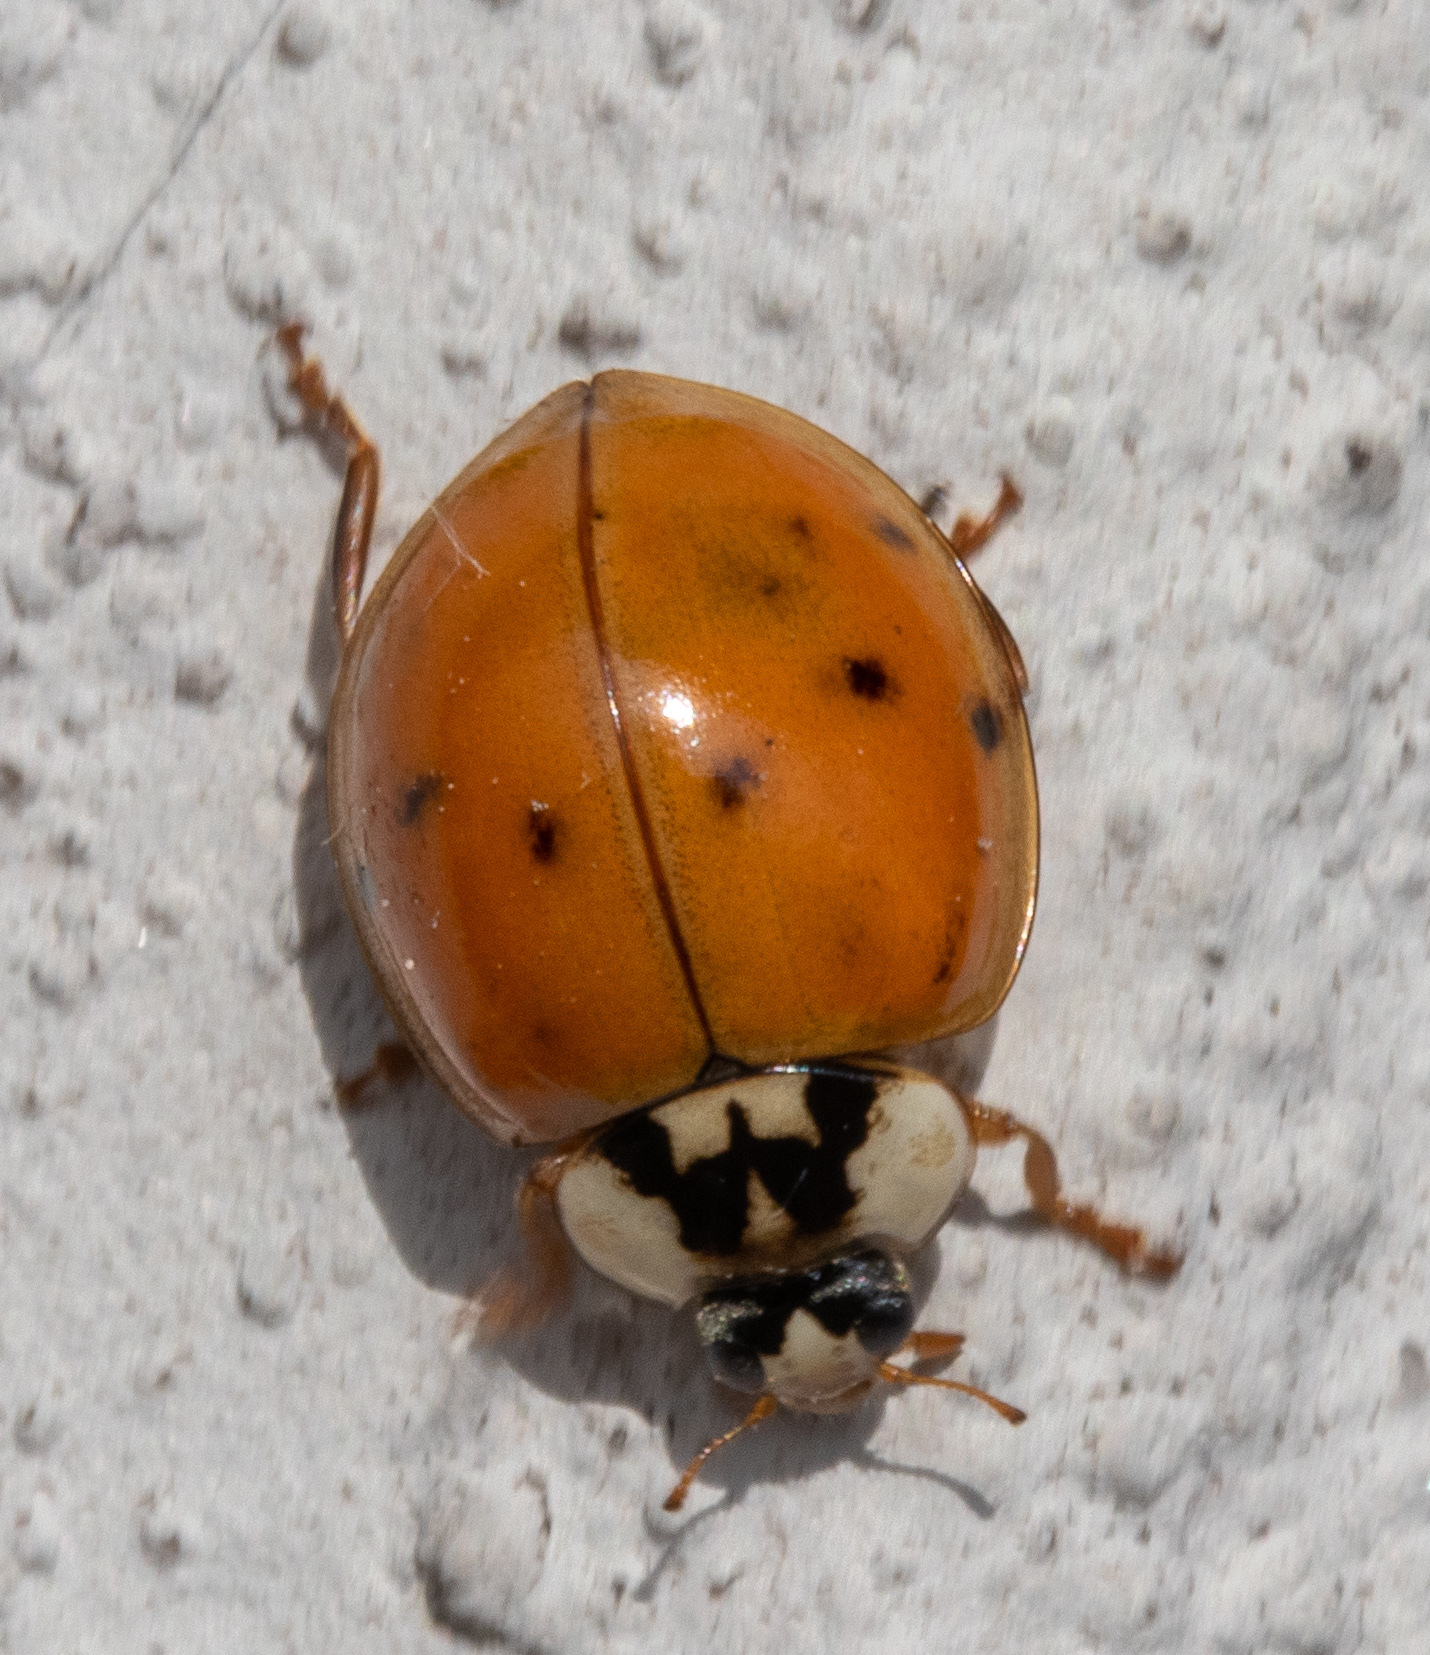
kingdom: Animalia
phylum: Arthropoda
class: Insecta
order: Coleoptera
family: Coccinellidae
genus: Harmonia
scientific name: Harmonia axyridis
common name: Harlequin ladybird
